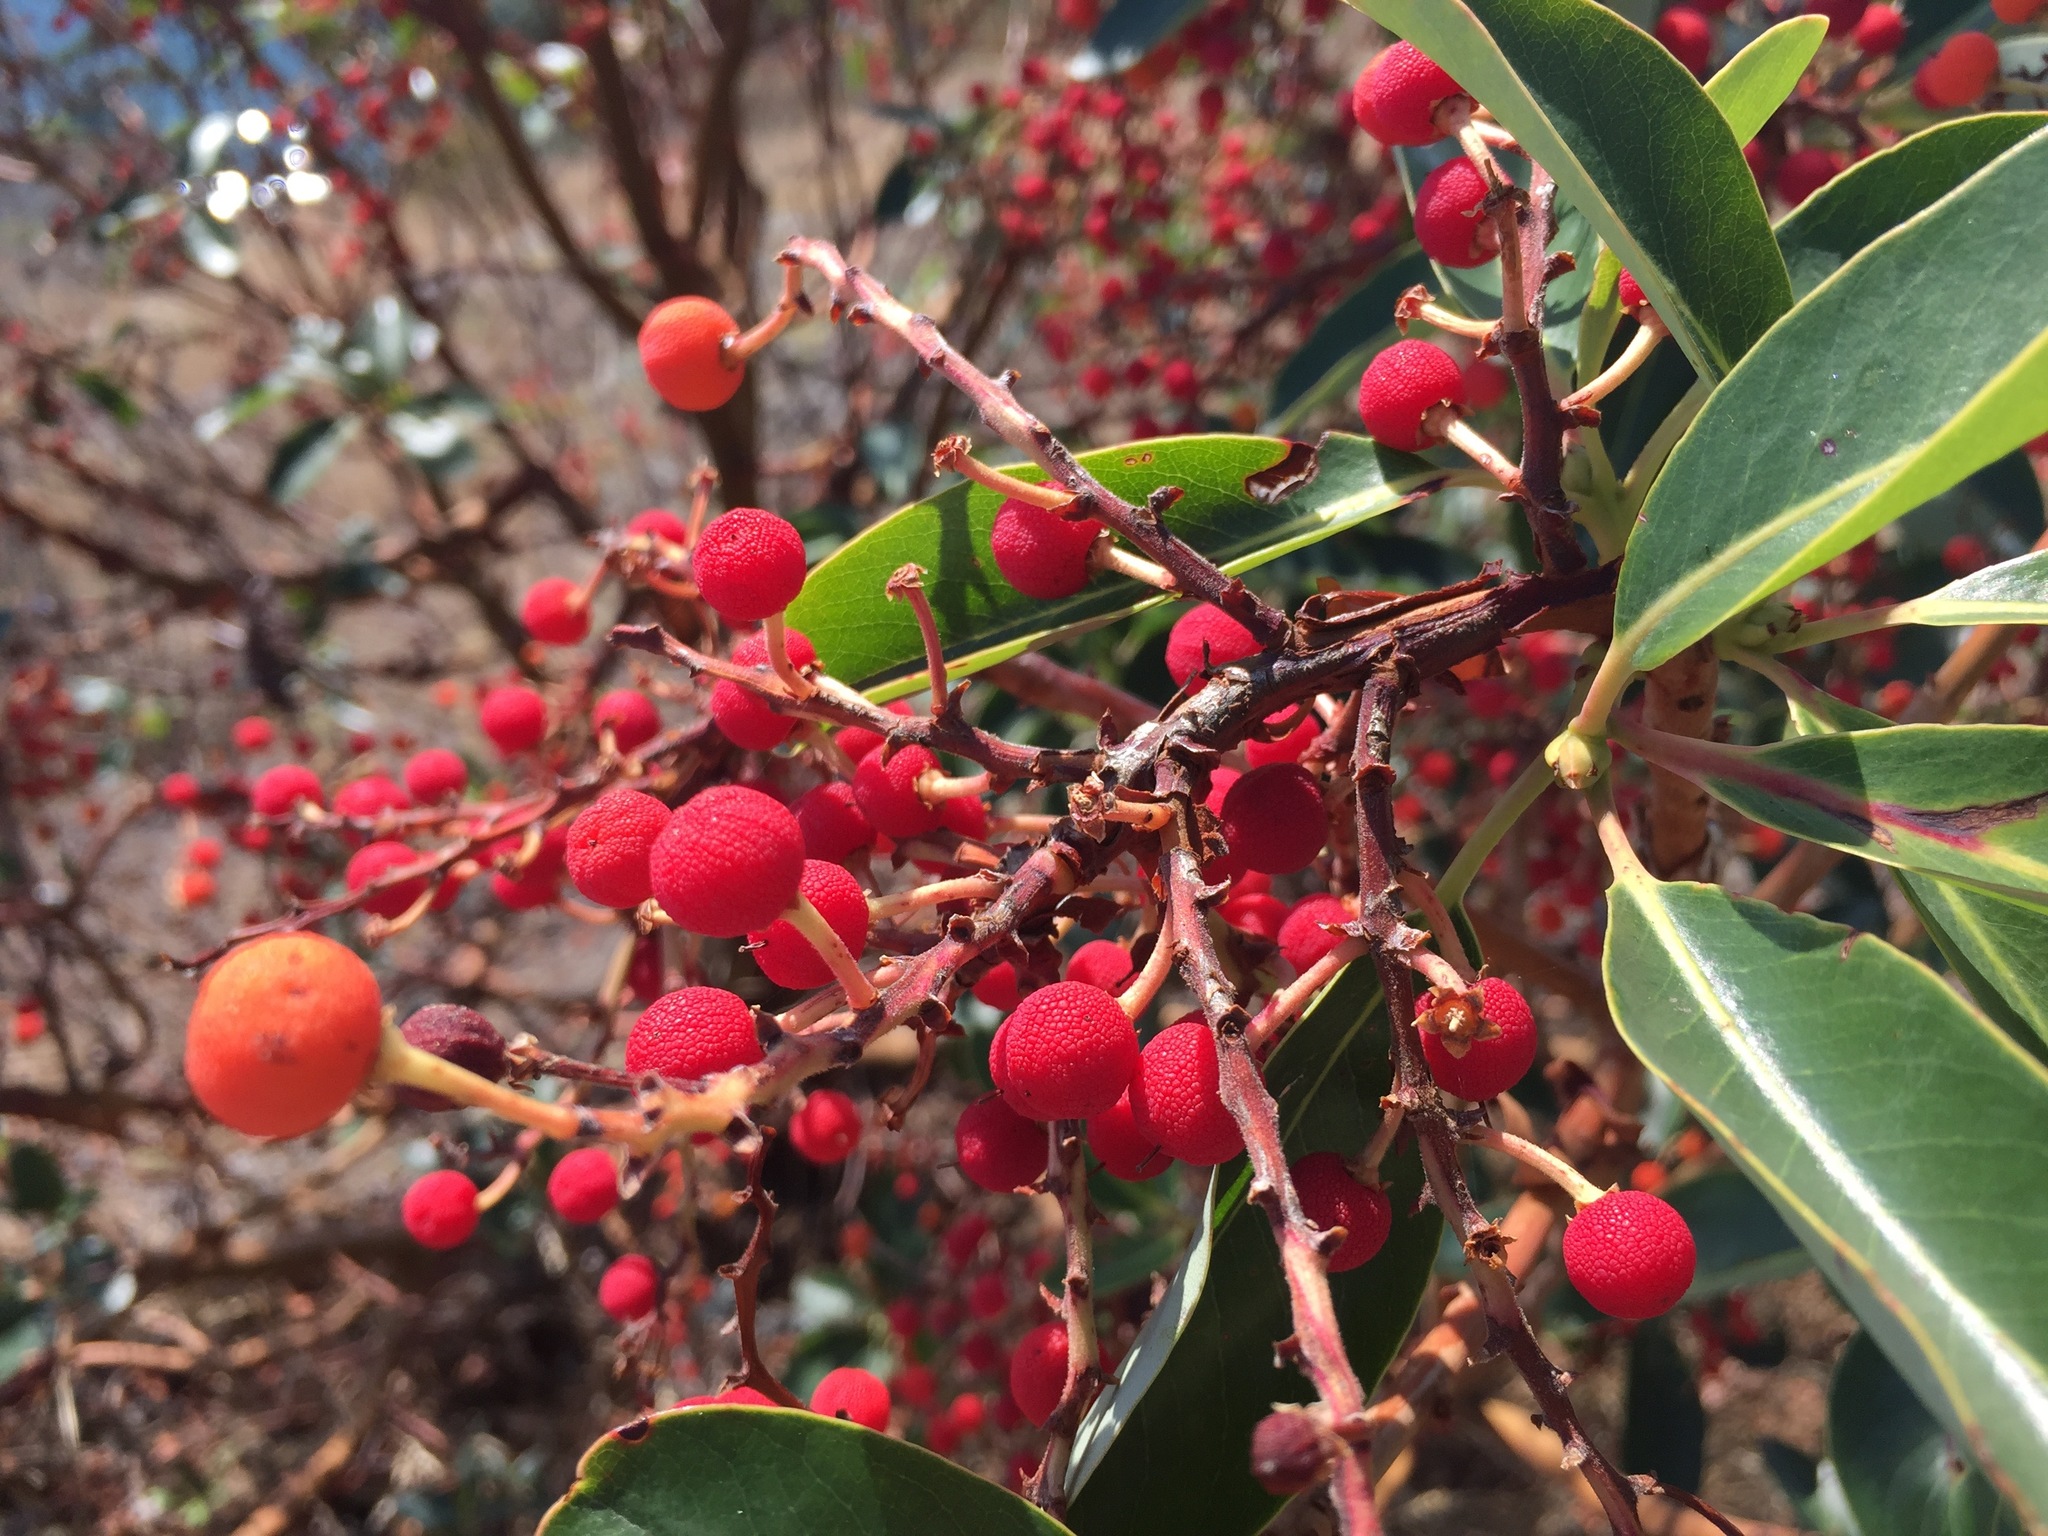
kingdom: Plantae
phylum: Tracheophyta
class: Magnoliopsida
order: Ericales
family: Ericaceae
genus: Arbutus
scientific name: Arbutus menziesii
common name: Pacific madrone
